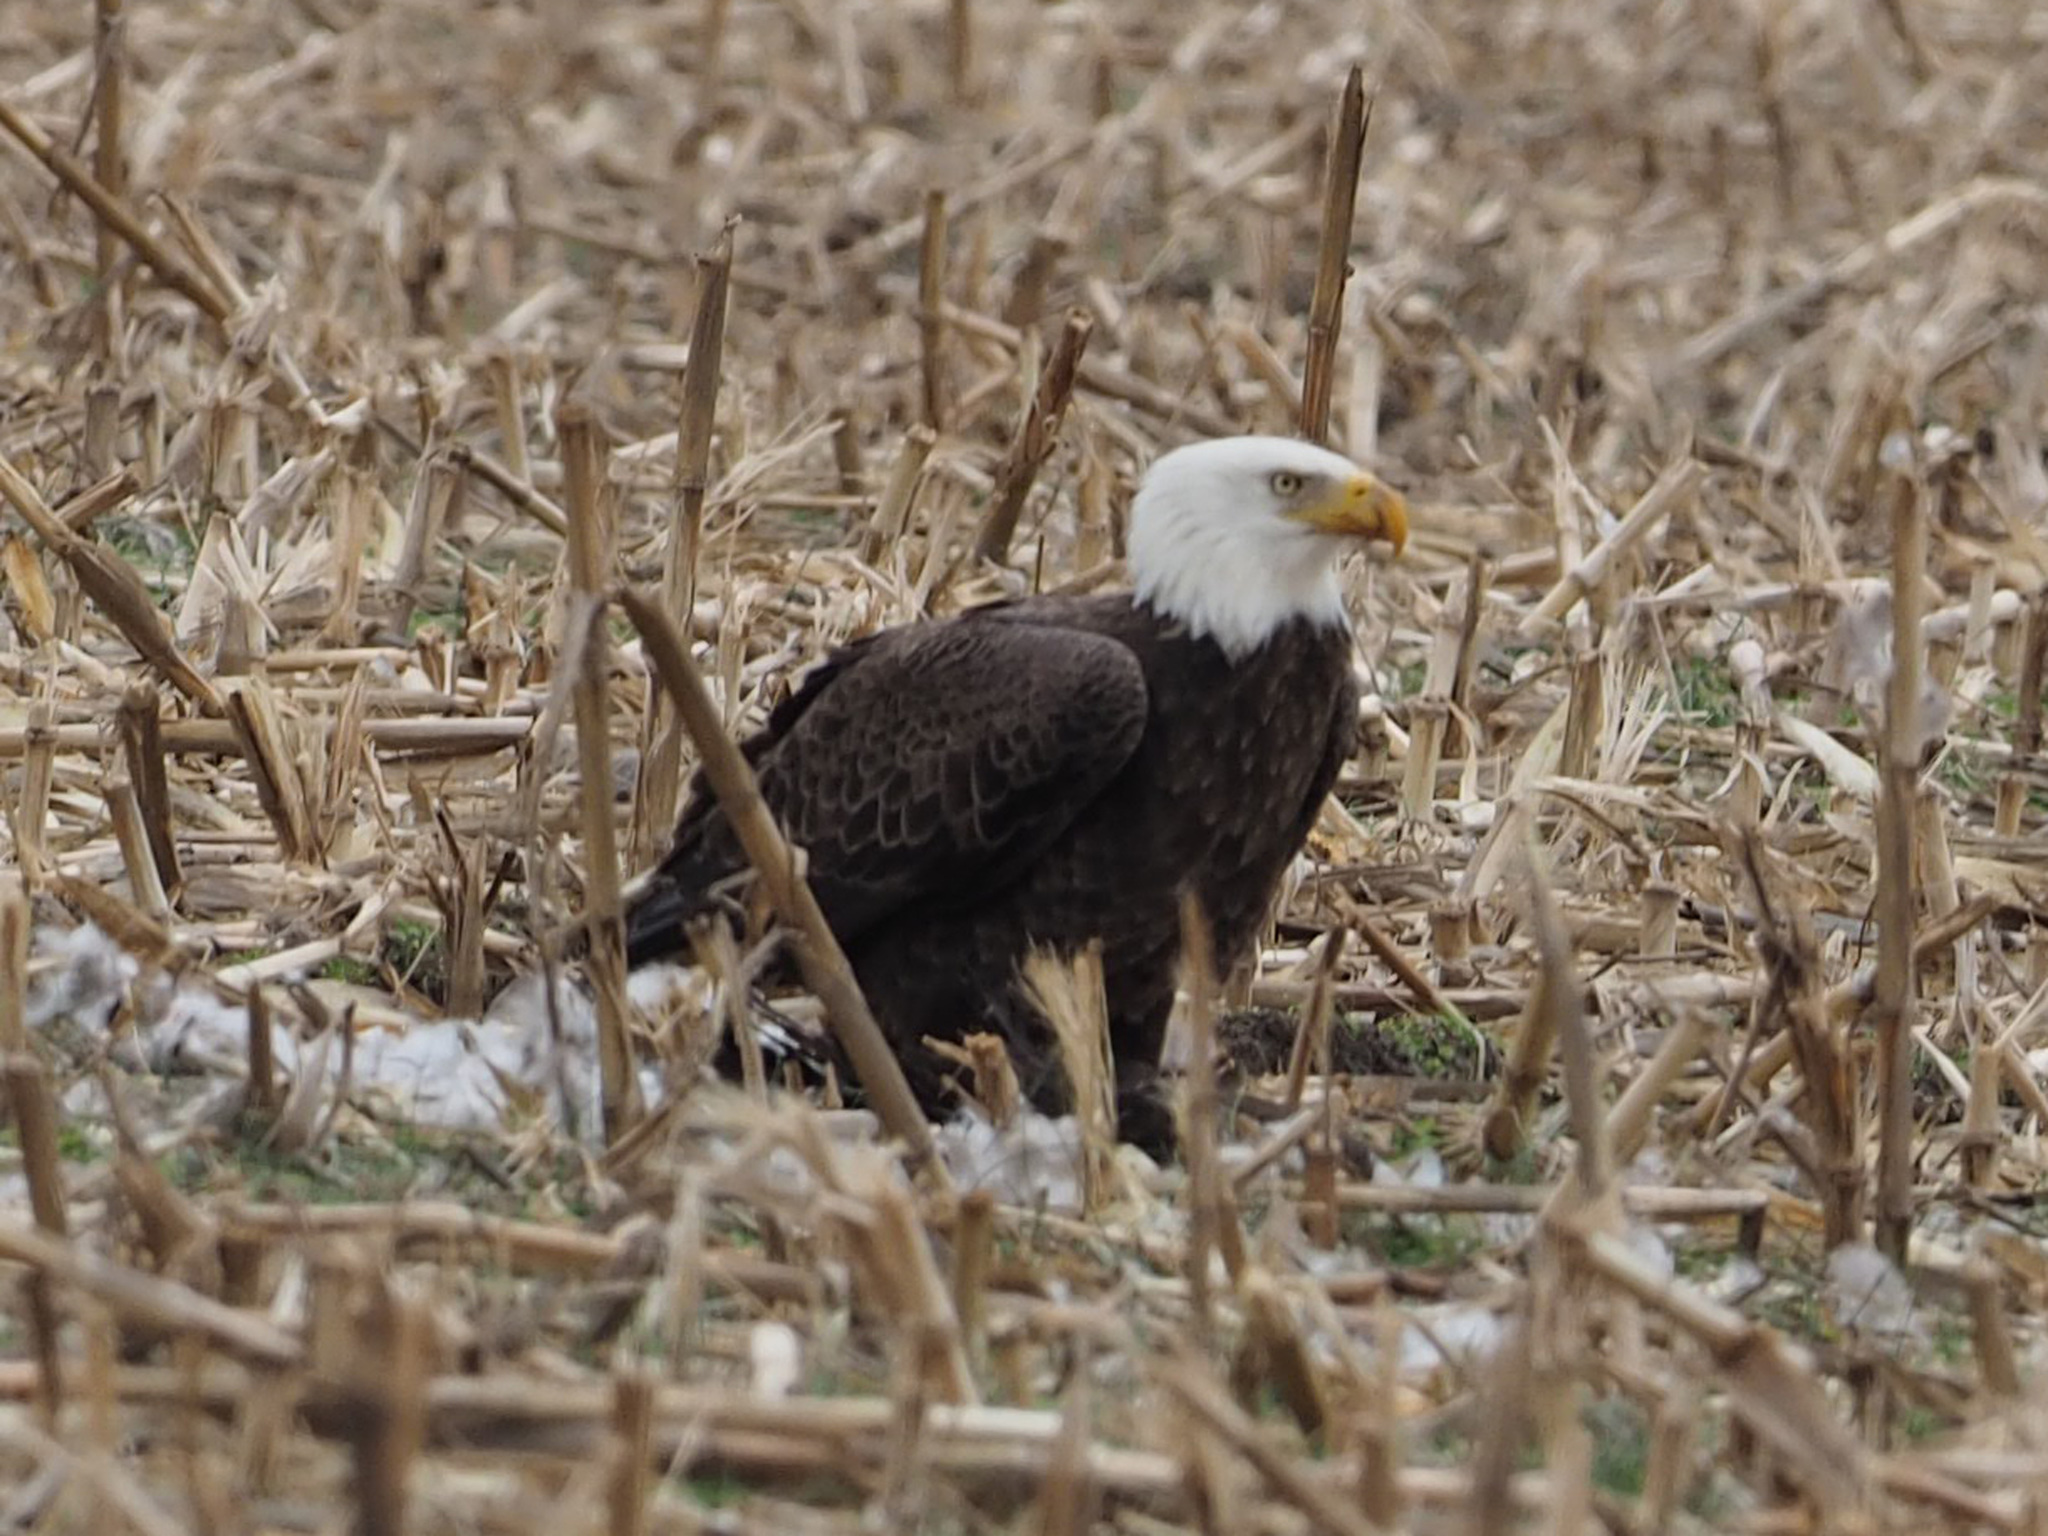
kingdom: Animalia
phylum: Chordata
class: Aves
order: Accipitriformes
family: Accipitridae
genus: Haliaeetus
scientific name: Haliaeetus leucocephalus
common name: Bald eagle
